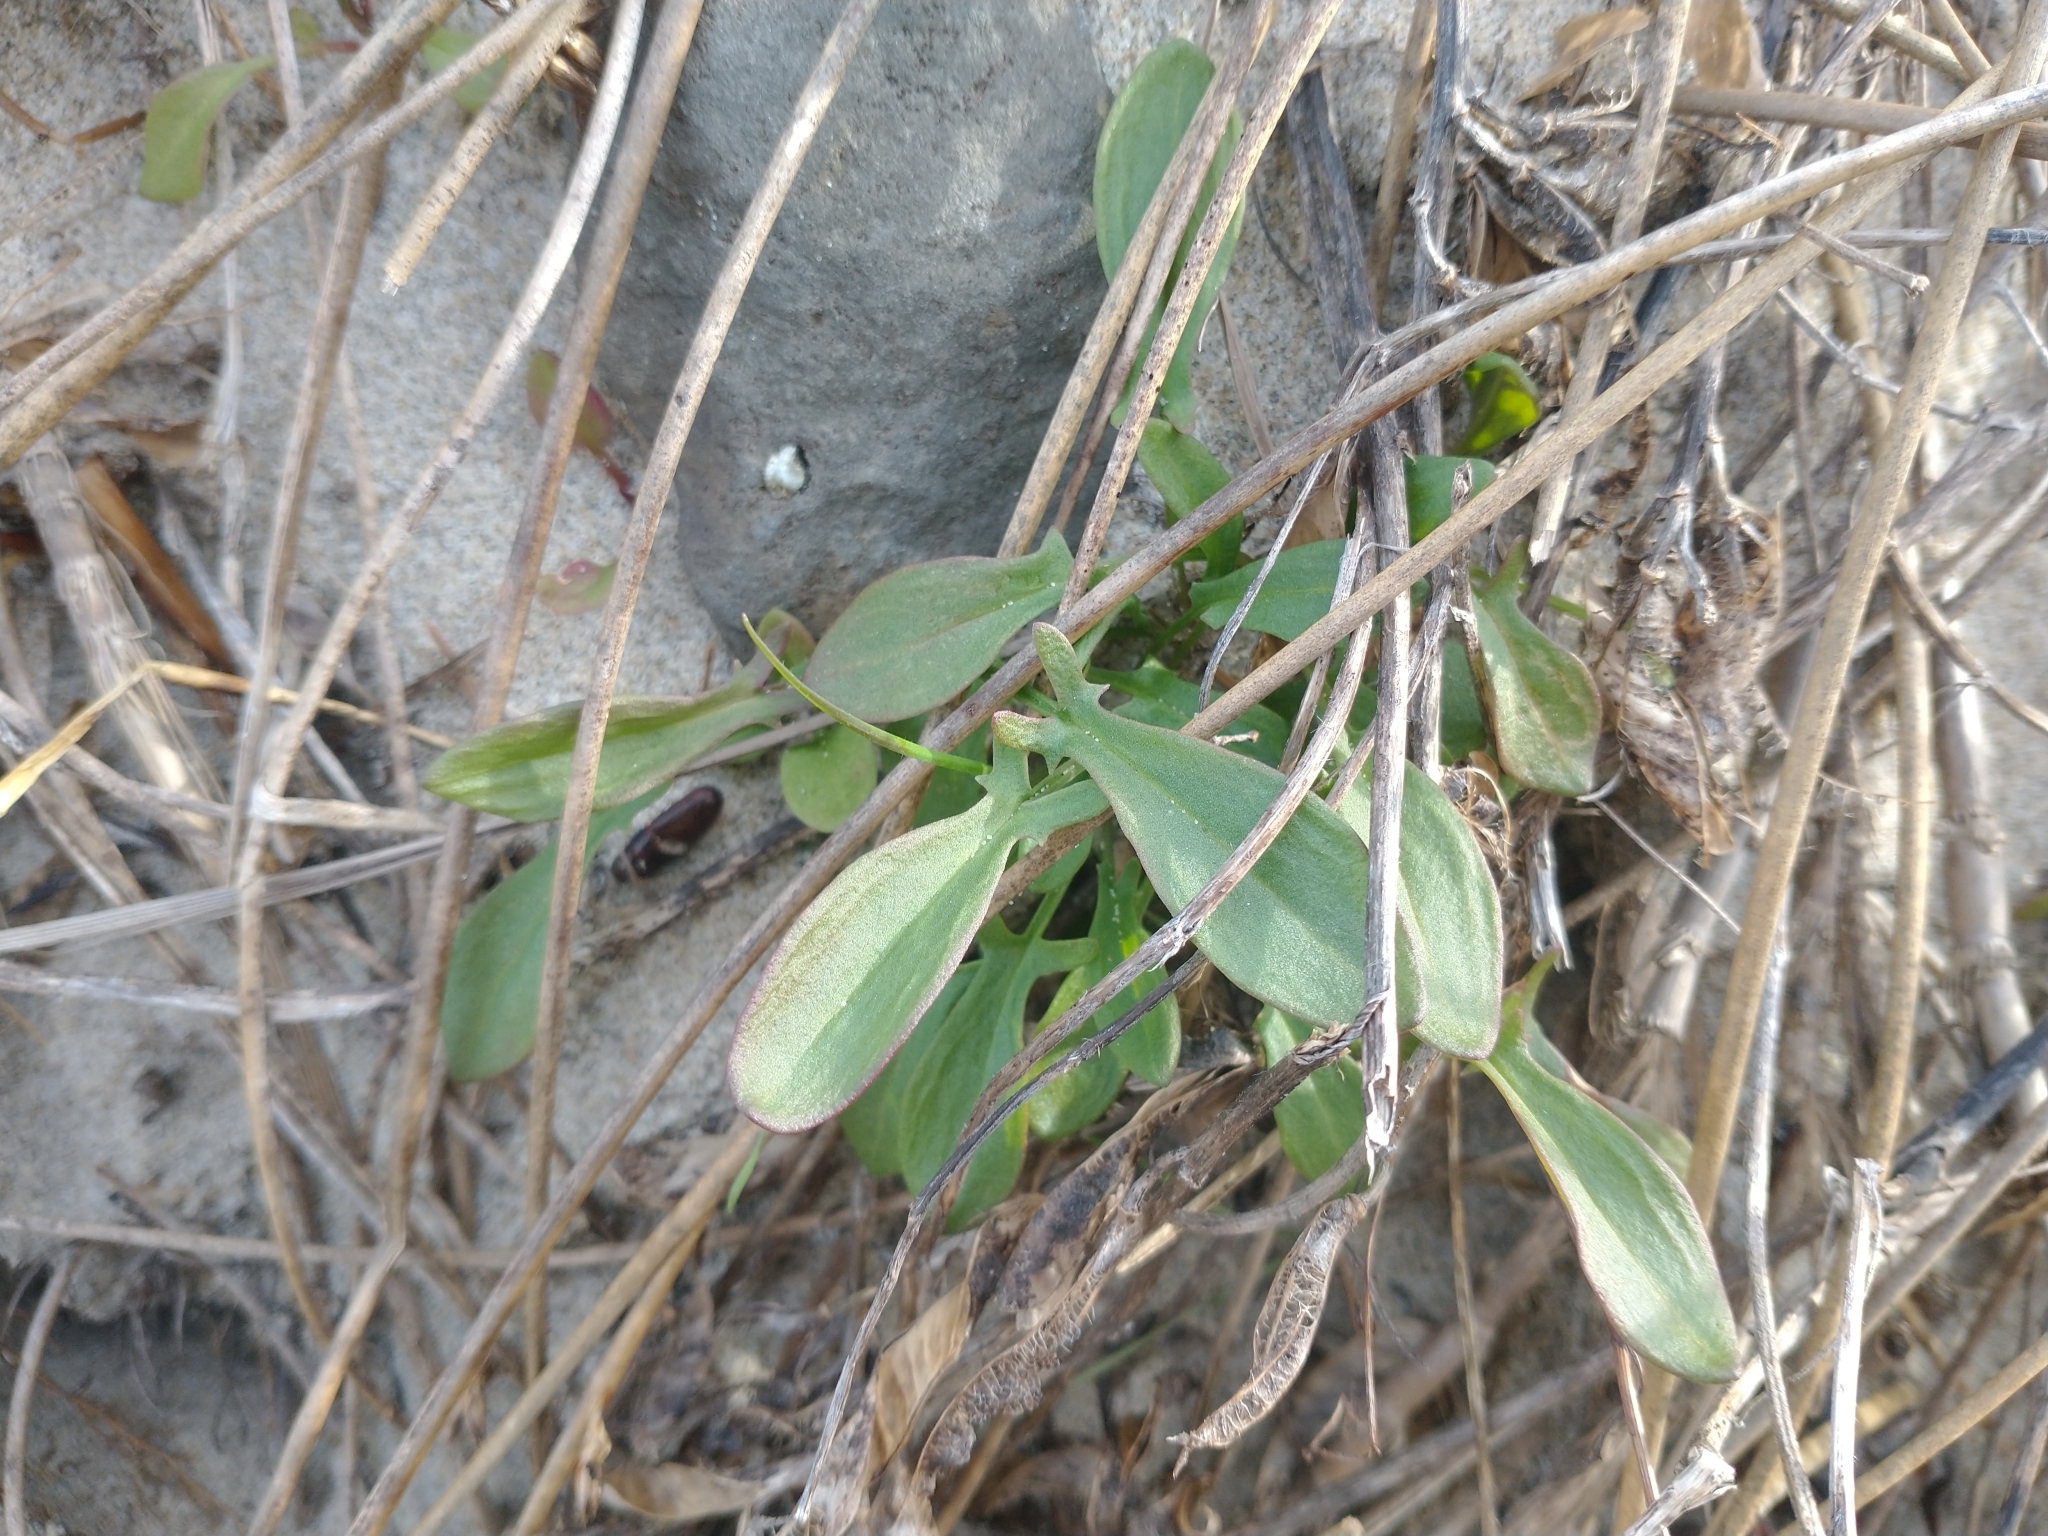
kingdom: Plantae
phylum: Tracheophyta
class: Magnoliopsida
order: Caryophyllales
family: Polygonaceae
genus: Rumex
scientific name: Rumex acetosella
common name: Common sheep sorrel
